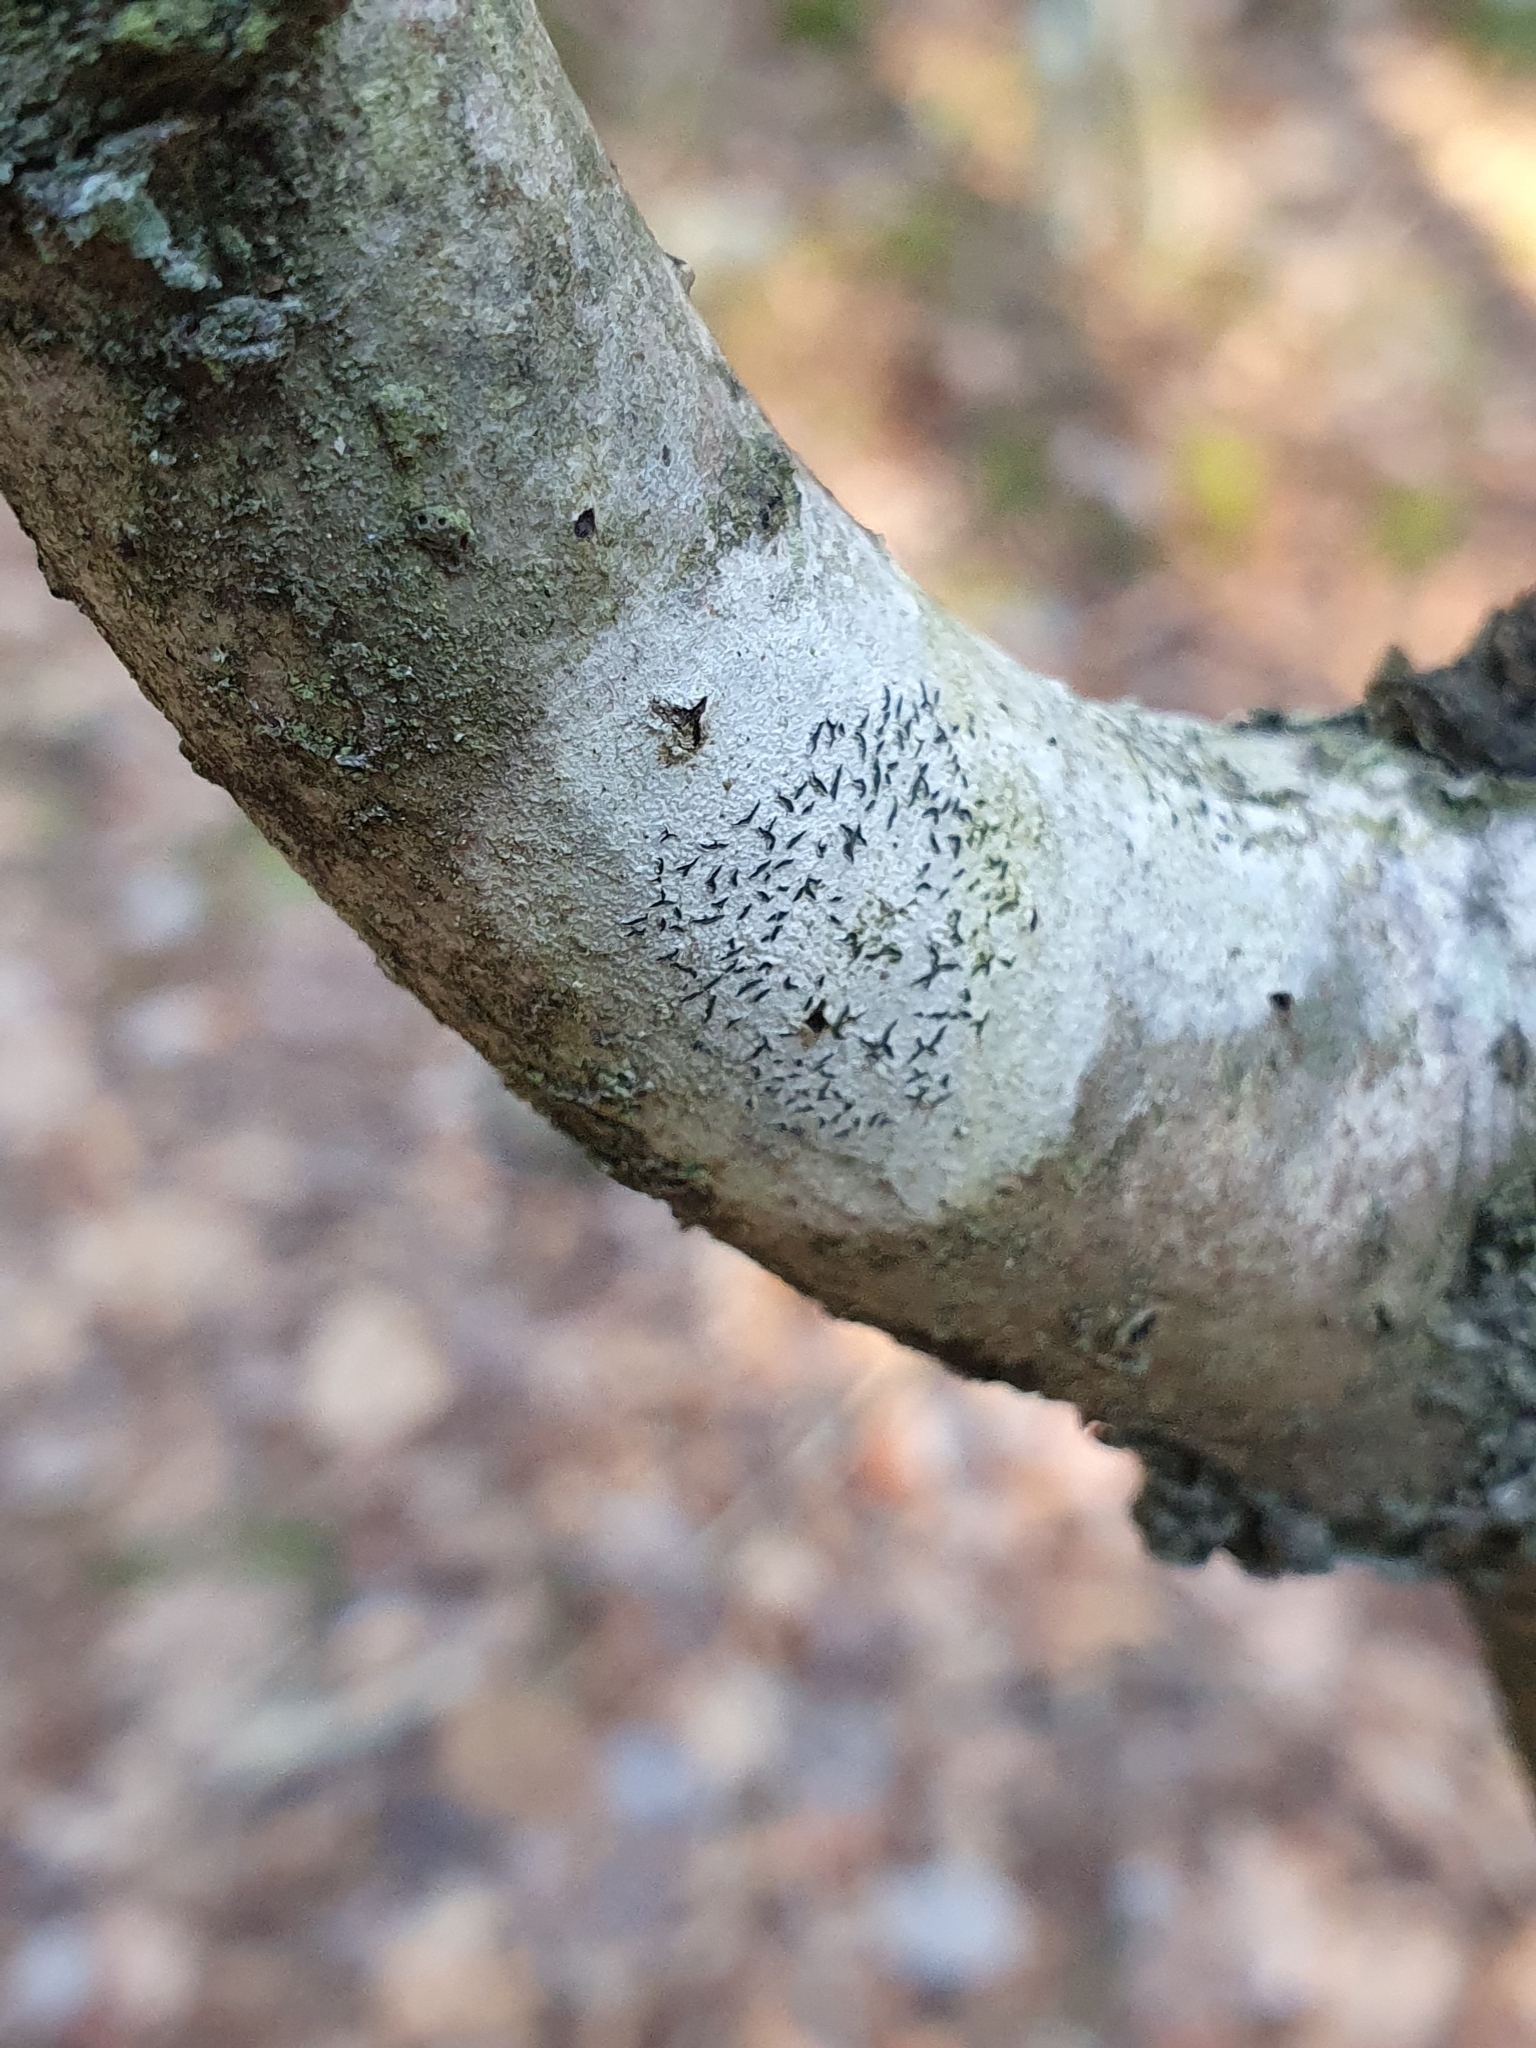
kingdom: Fungi
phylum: Ascomycota
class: Lecanoromycetes
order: Ostropales
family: Graphidaceae
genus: Graphis
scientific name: Graphis scripta
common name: Script lichen
